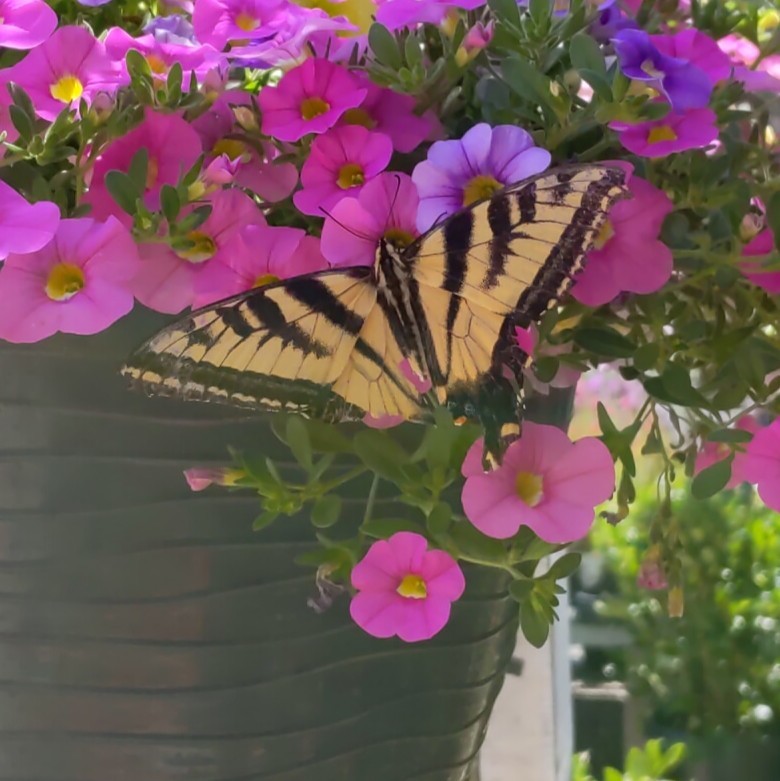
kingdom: Animalia
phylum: Arthropoda
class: Insecta
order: Lepidoptera
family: Papilionidae
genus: Papilio
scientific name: Papilio rutulus
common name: Western tiger swallowtail
